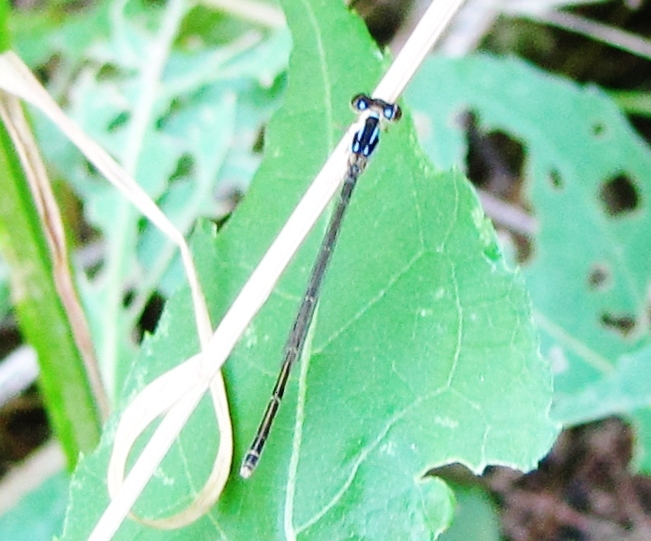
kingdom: Animalia
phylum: Arthropoda
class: Insecta
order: Odonata
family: Coenagrionidae
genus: Ischnura
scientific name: Ischnura posita
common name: Fragile forktail
